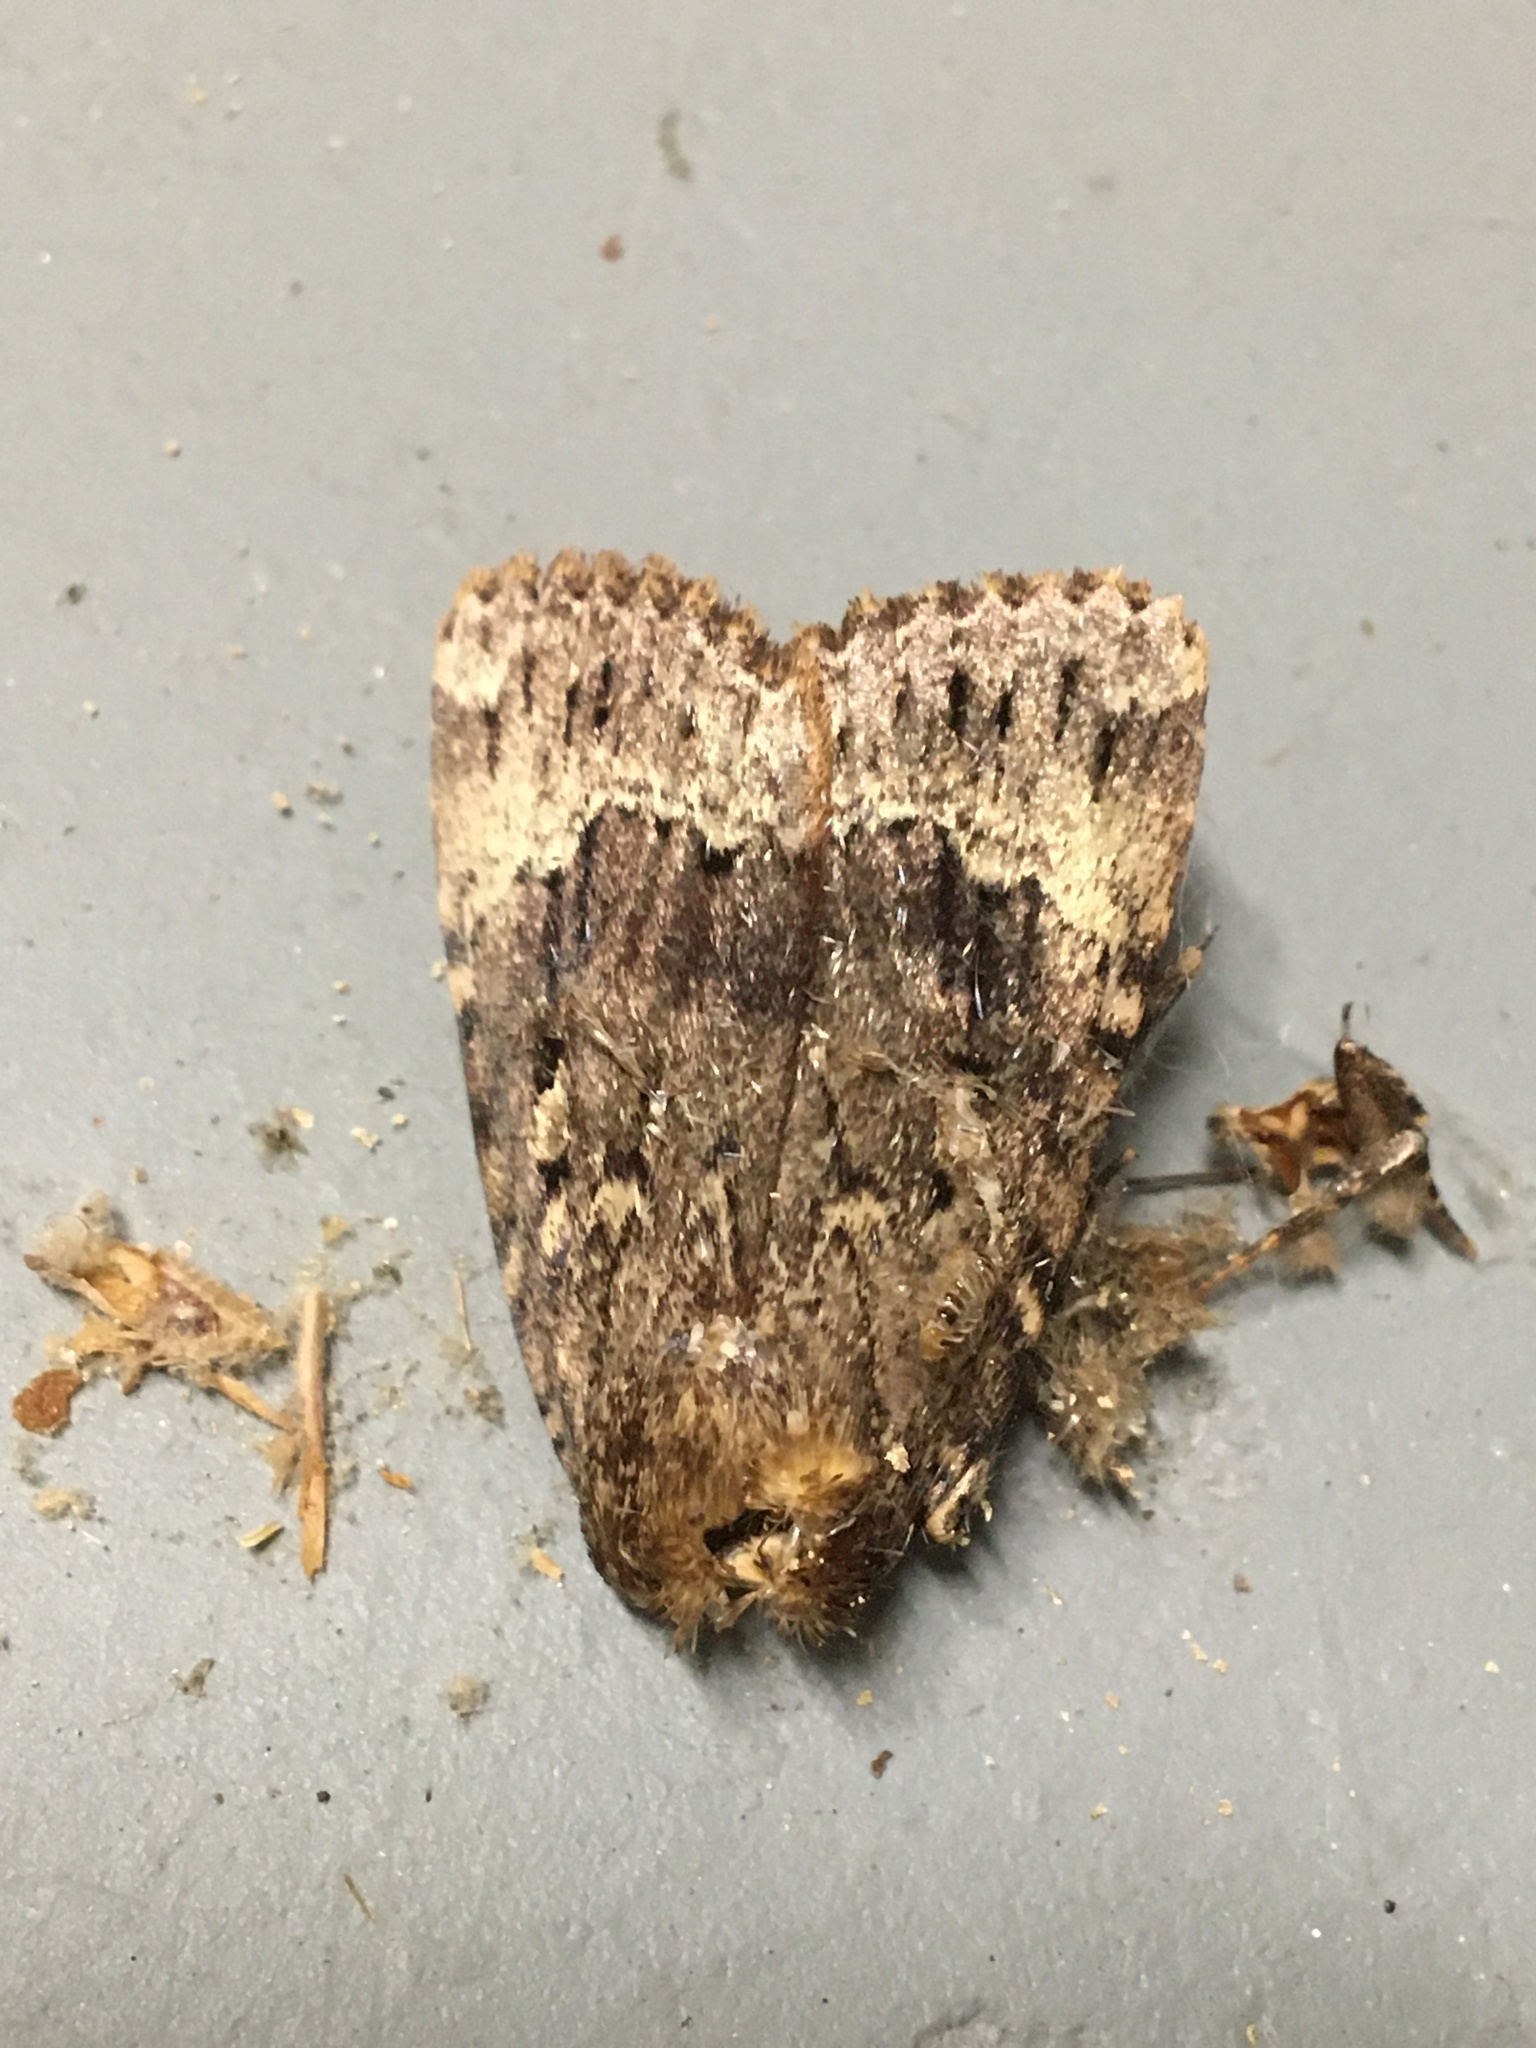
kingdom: Animalia
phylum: Arthropoda
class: Insecta
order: Lepidoptera
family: Noctuidae
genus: Amphipyra
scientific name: Amphipyra pyramidoides
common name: American copper underwing
